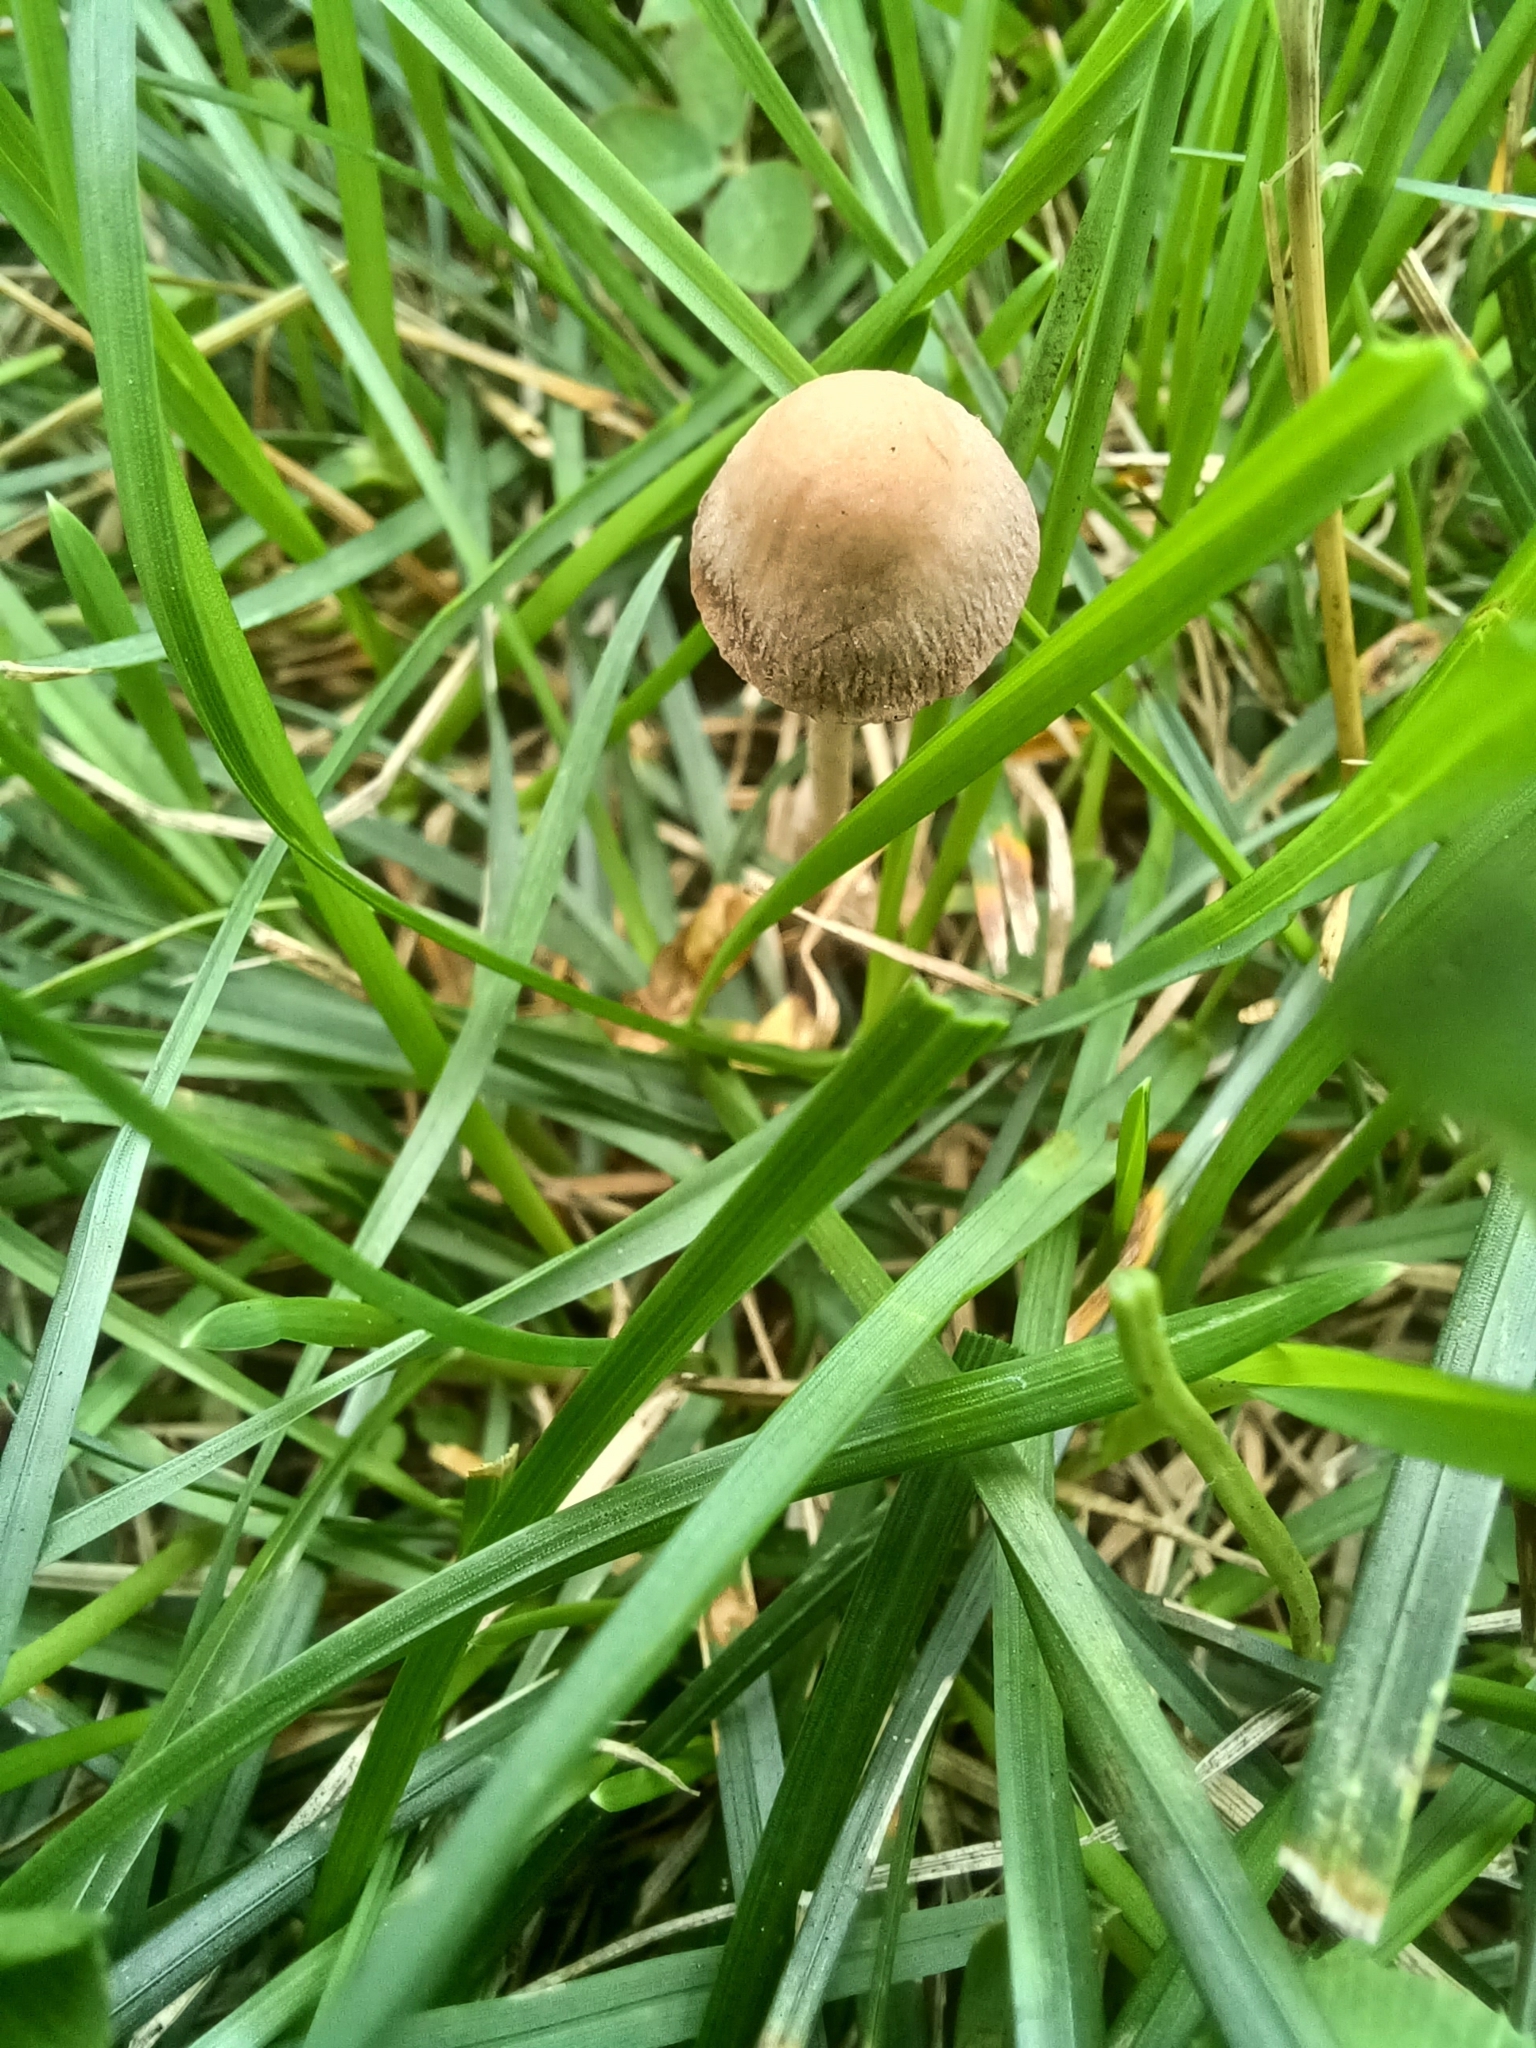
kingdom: Fungi
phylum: Basidiomycota
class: Agaricomycetes
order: Agaricales
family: Bolbitiaceae
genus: Panaeolina
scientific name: Panaeolina foenisecii
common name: Brown hay cap
